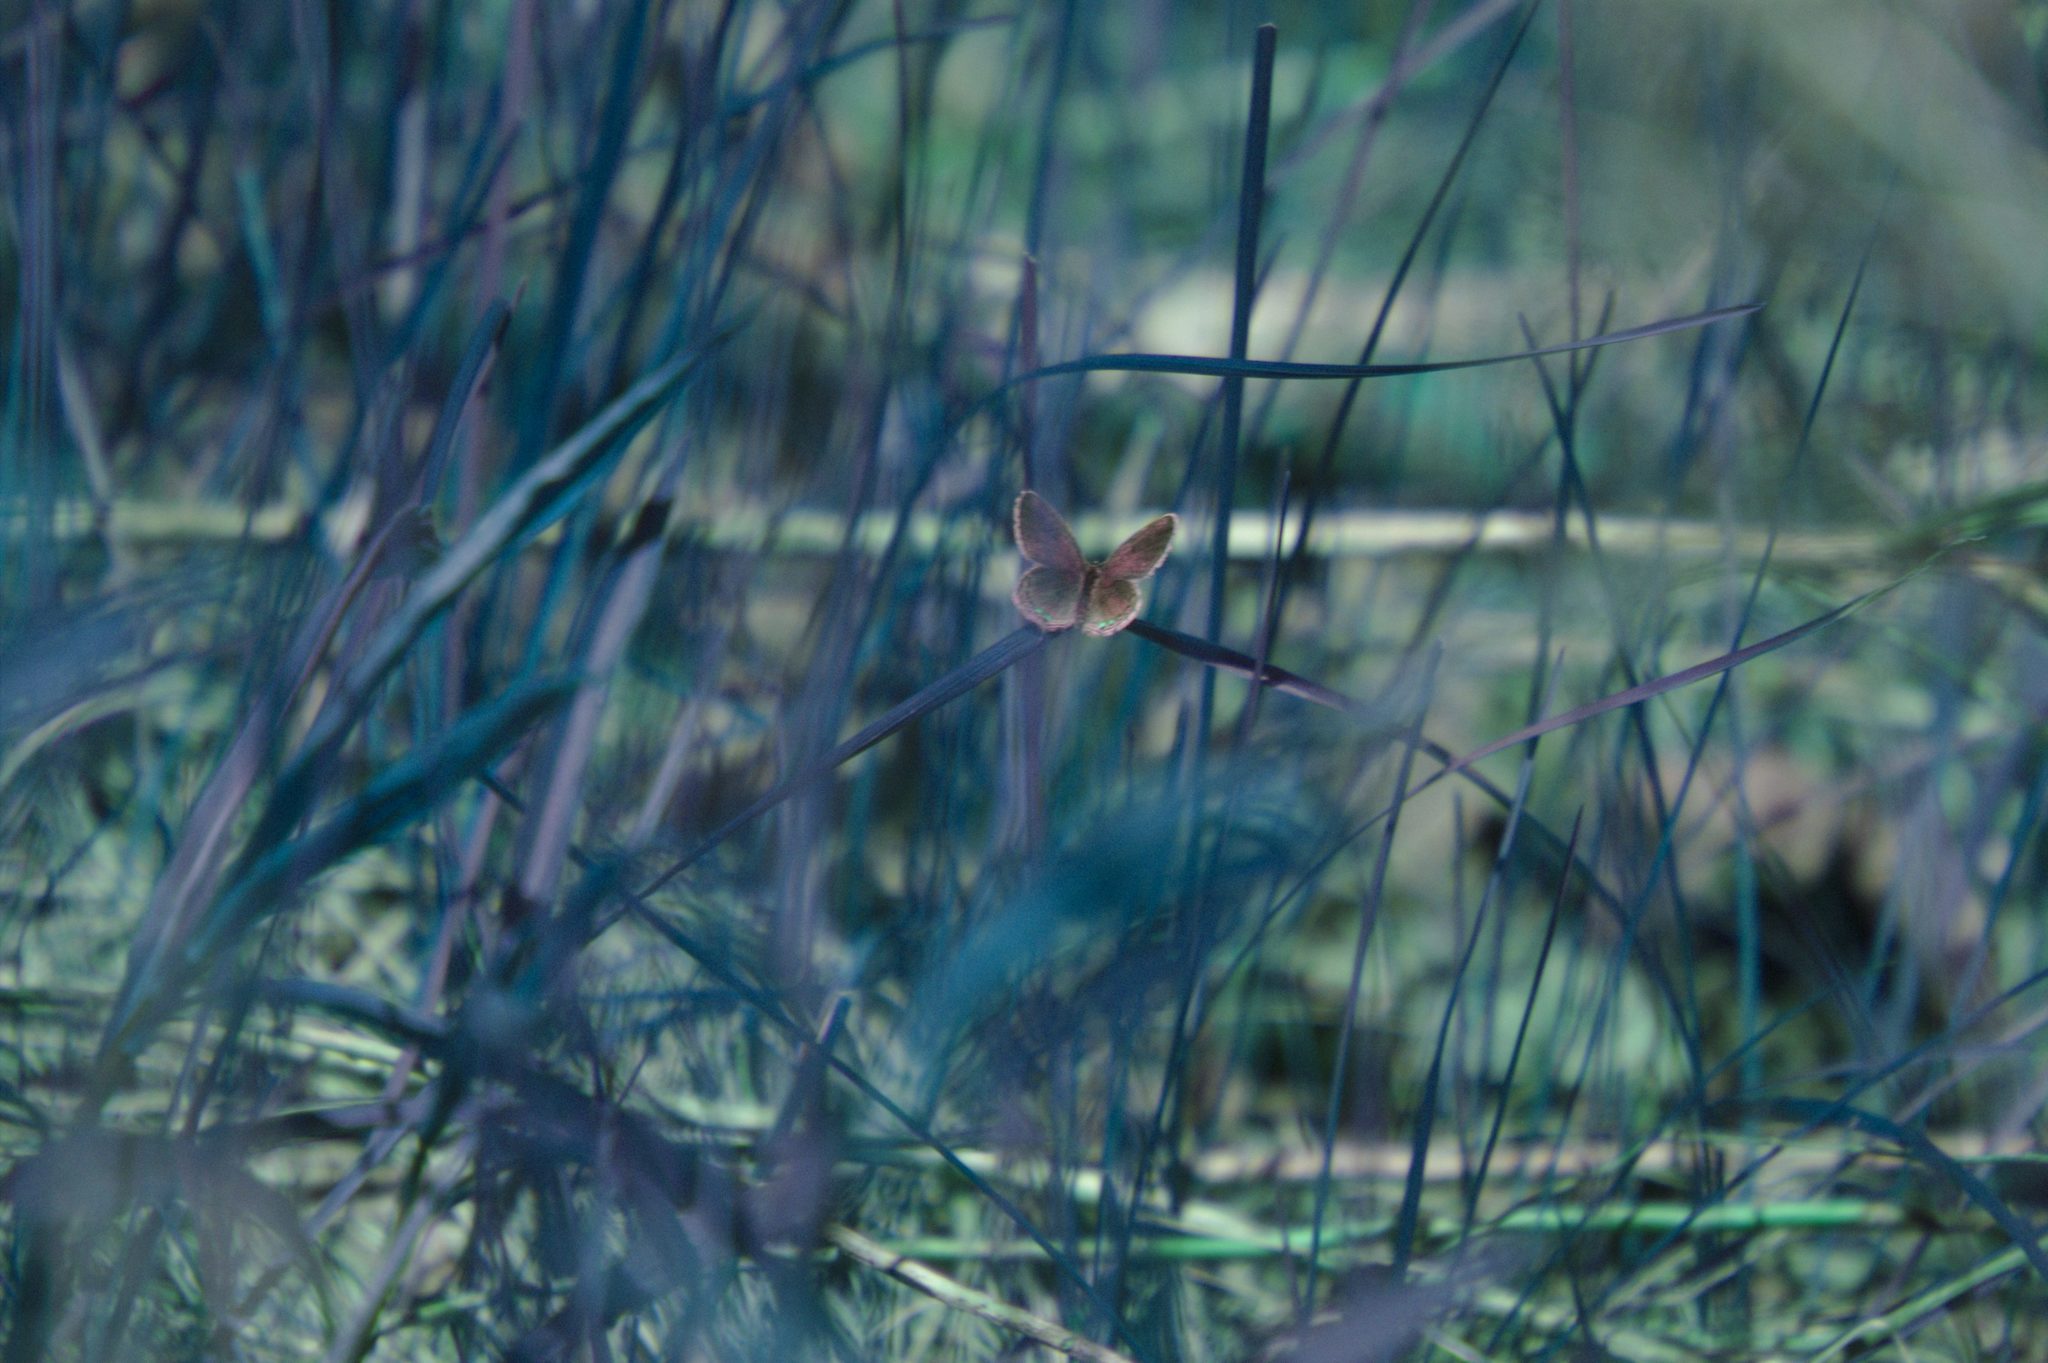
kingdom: Animalia
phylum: Arthropoda
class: Insecta
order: Lepidoptera
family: Lycaenidae
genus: Elkalyce
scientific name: Elkalyce comyntas
